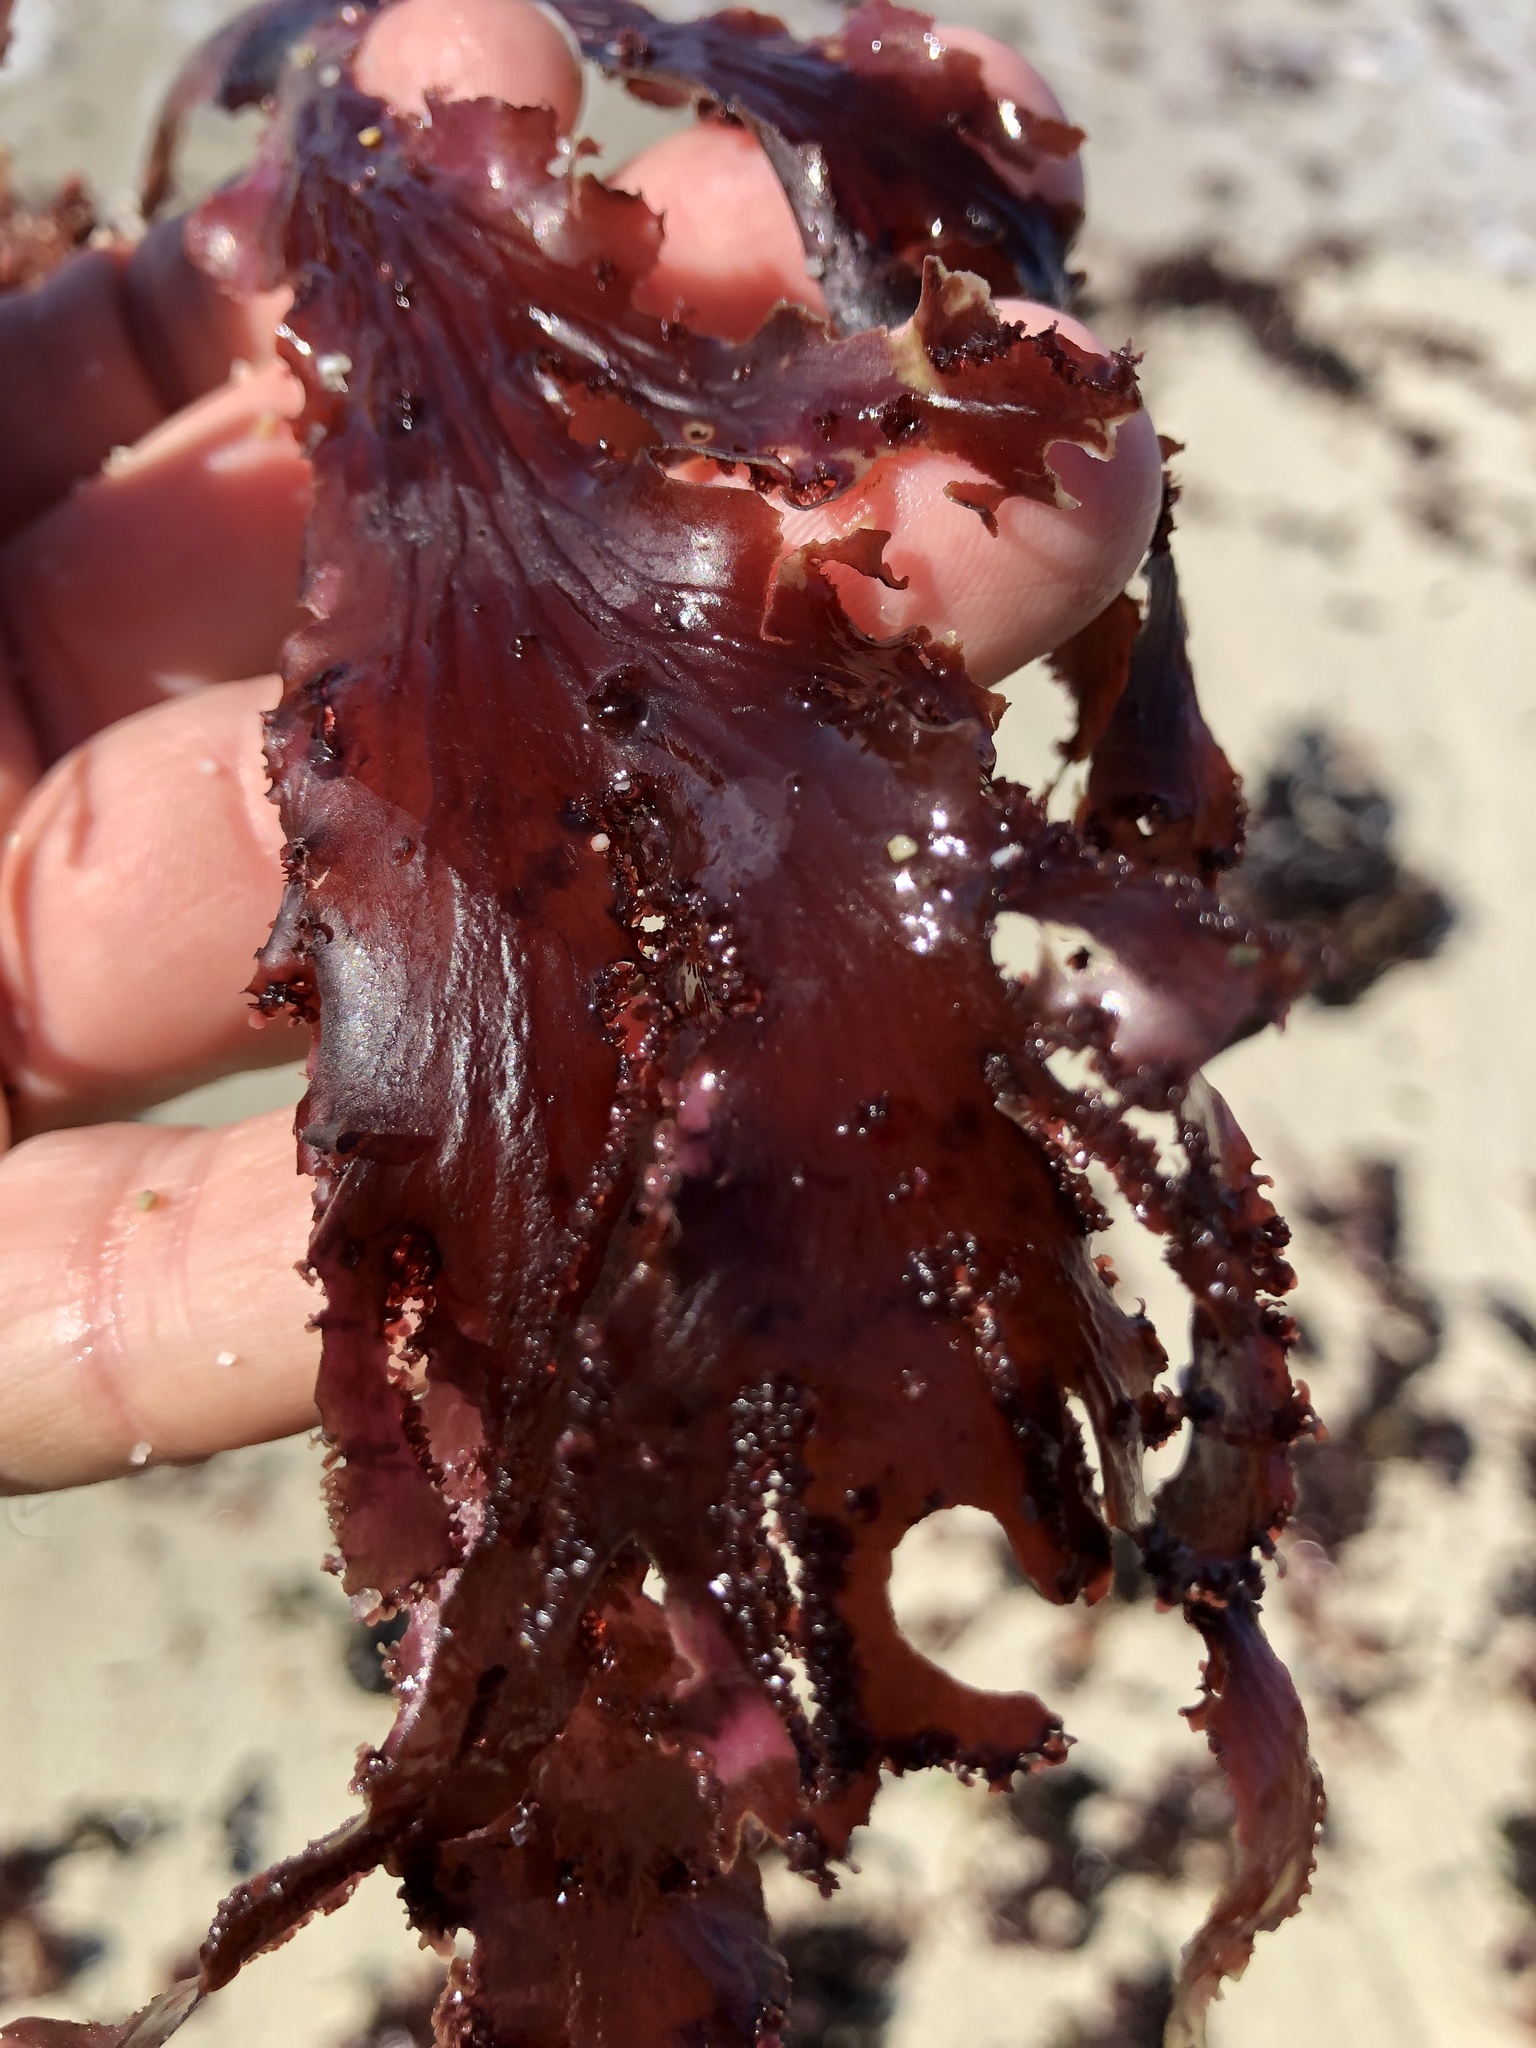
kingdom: Plantae
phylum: Rhodophyta
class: Florideophyceae
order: Ceramiales
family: Delesseriaceae
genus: Cryptopleura
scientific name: Cryptopleura ruprechtiana
